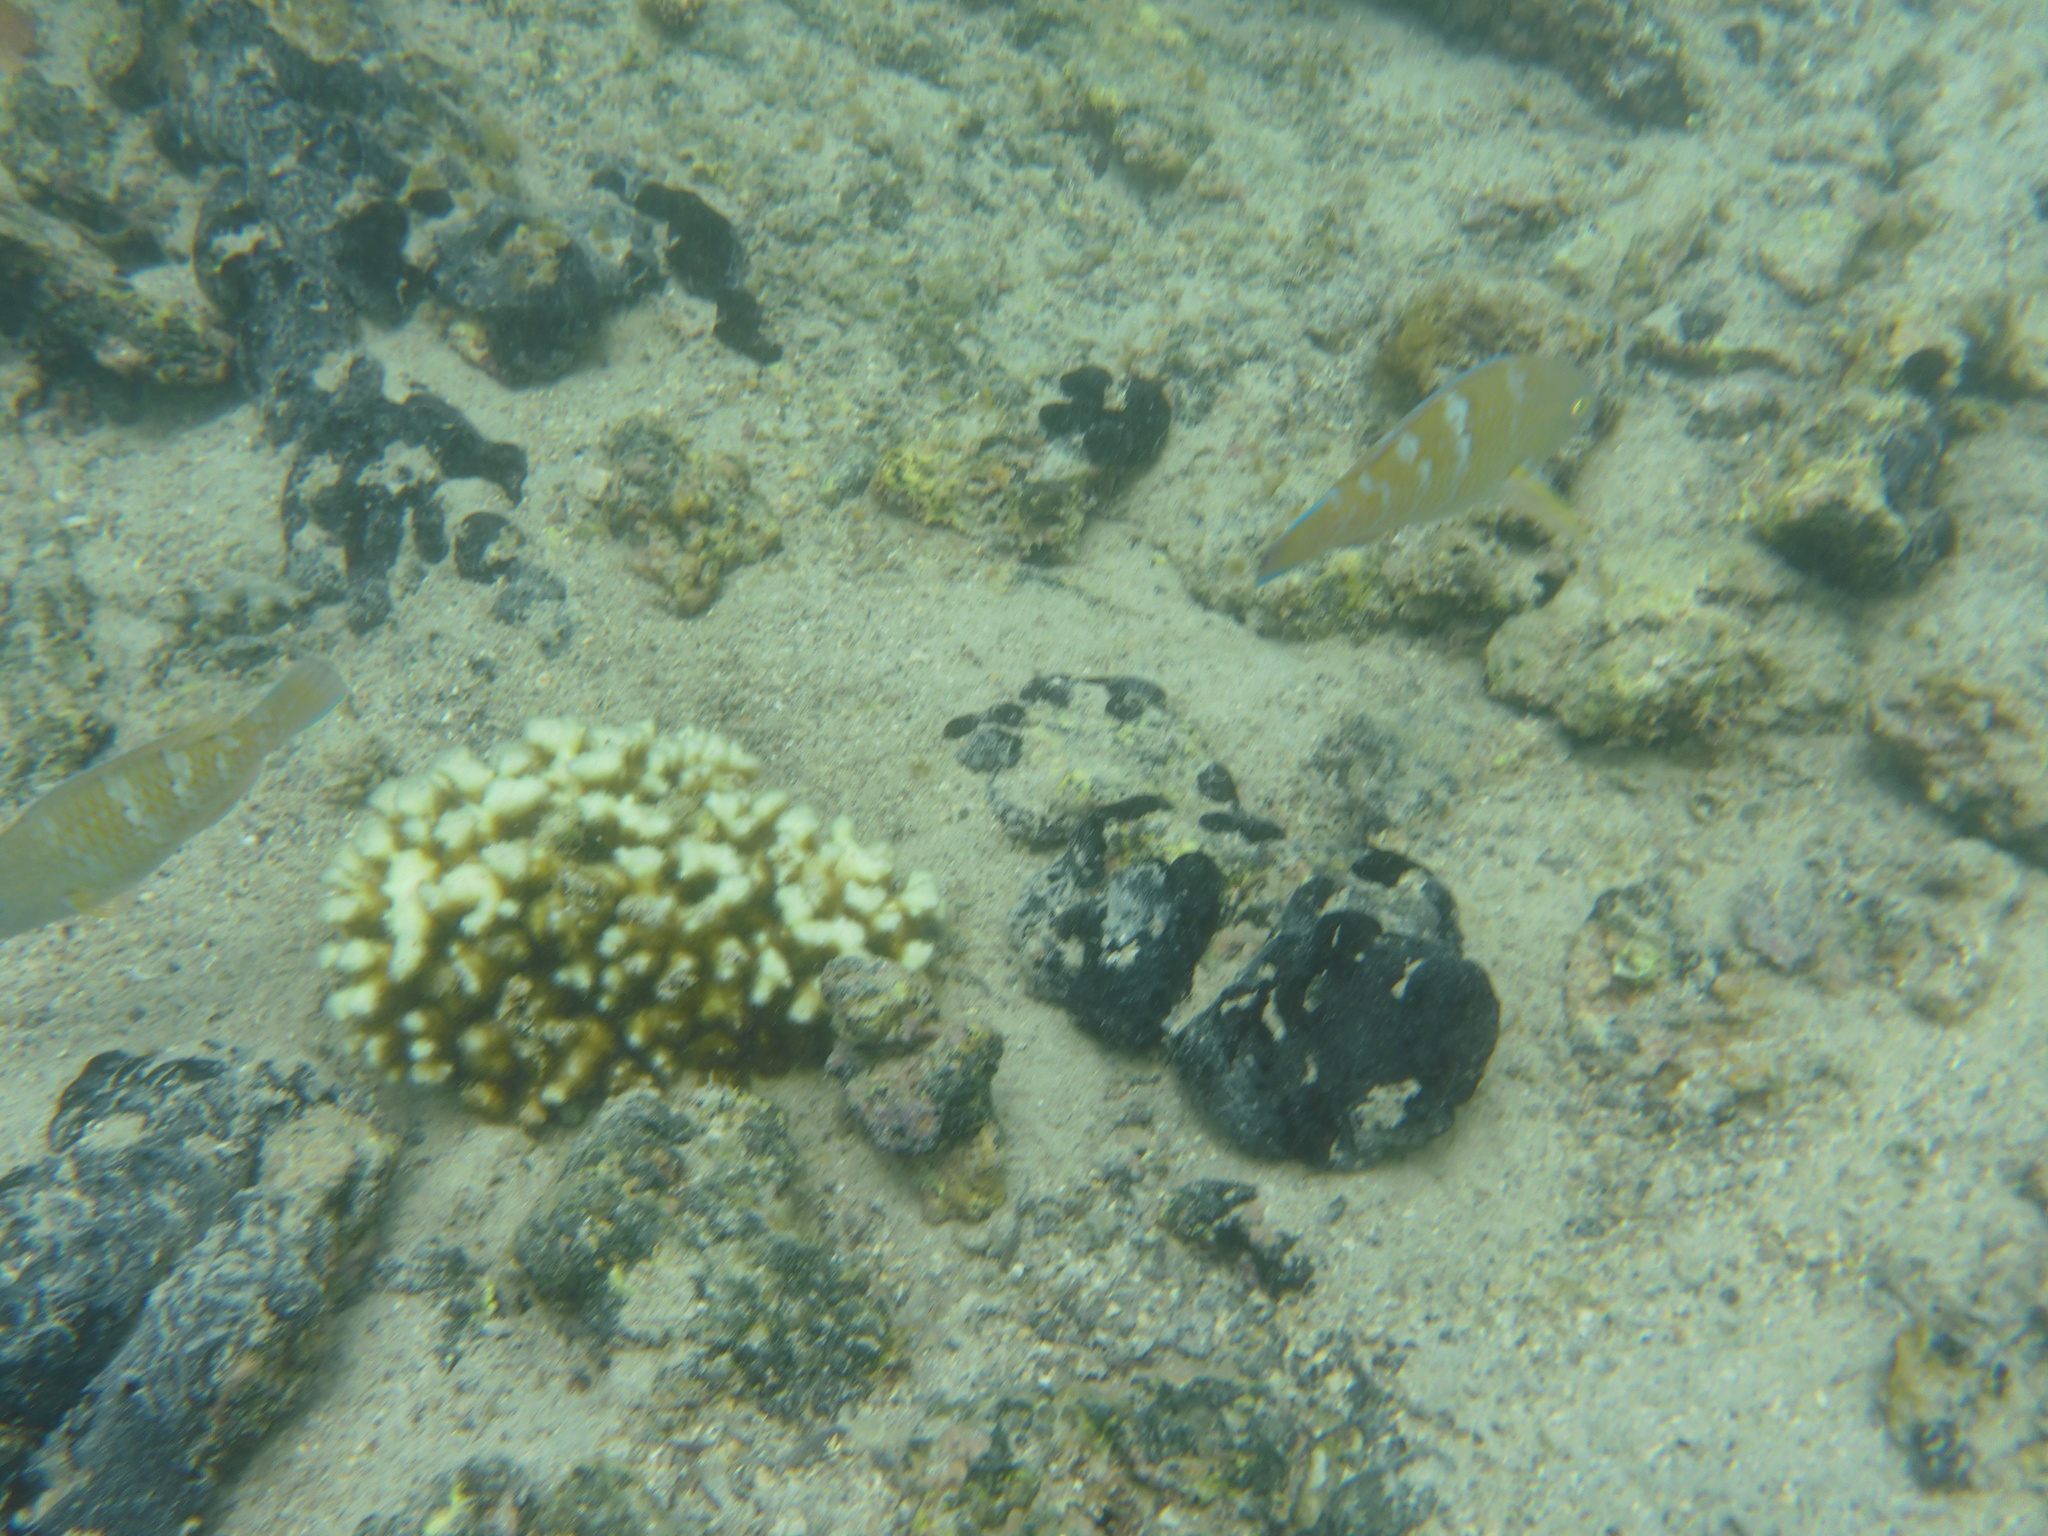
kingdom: Animalia
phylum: Chordata
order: Perciformes
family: Scaridae
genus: Scarus
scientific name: Scarus ghobban
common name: Blue-barred parrotfish
